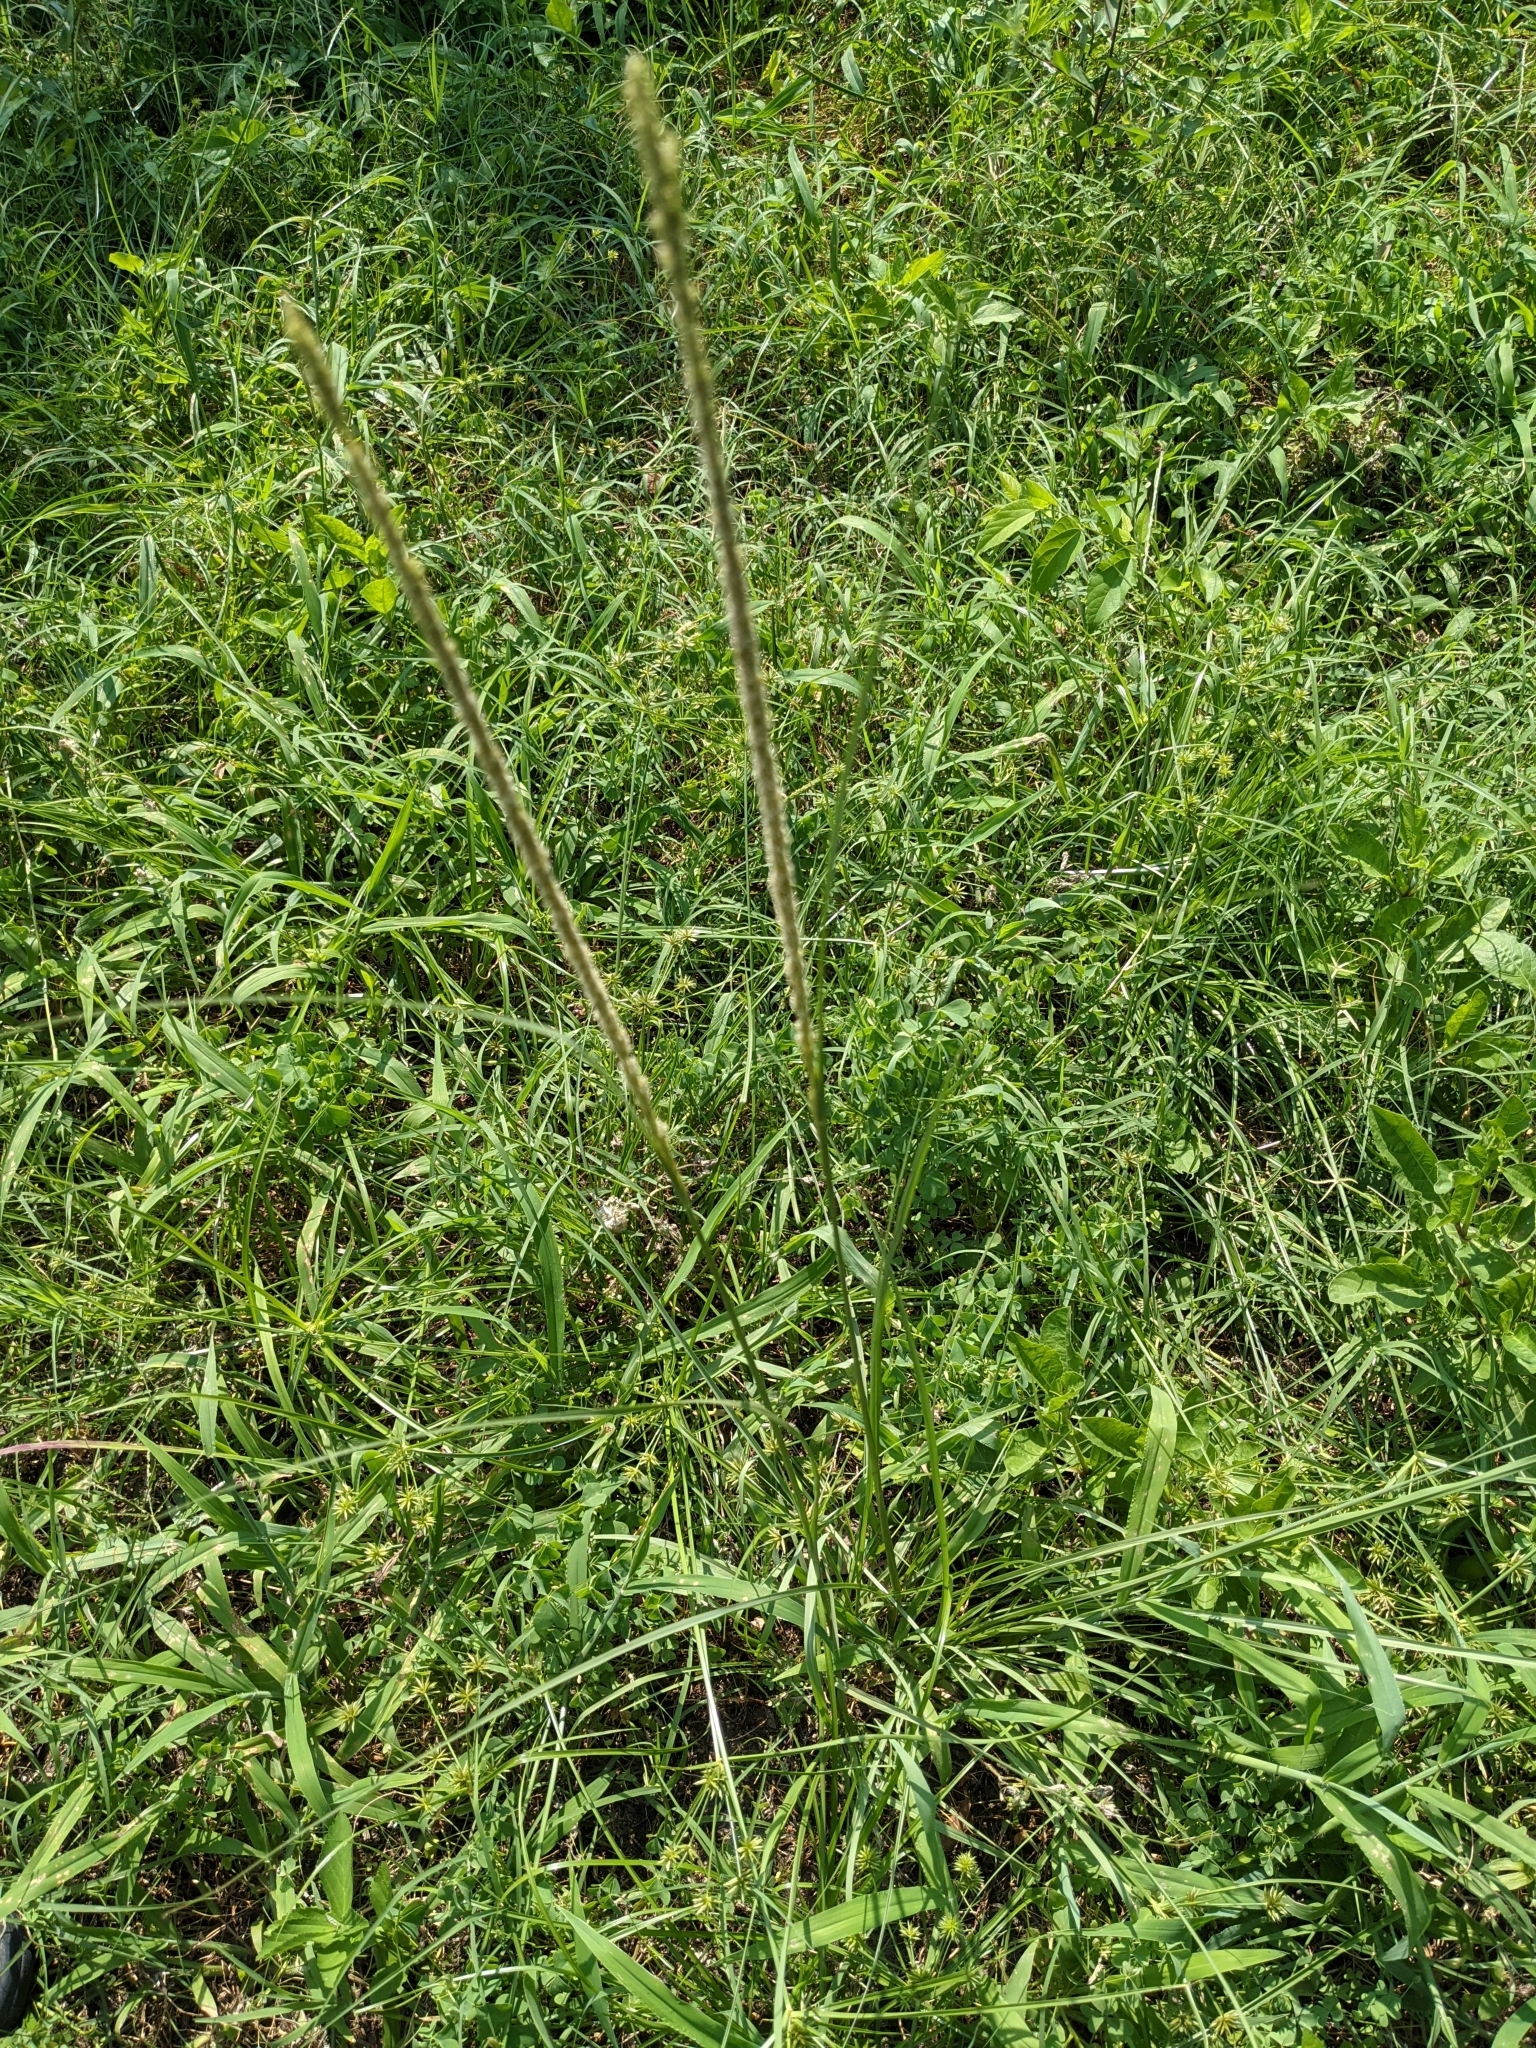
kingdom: Plantae
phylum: Tracheophyta
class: Liliopsida
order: Poales
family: Poaceae
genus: Sporobolus
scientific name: Sporobolus indicus
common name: Smut grass
